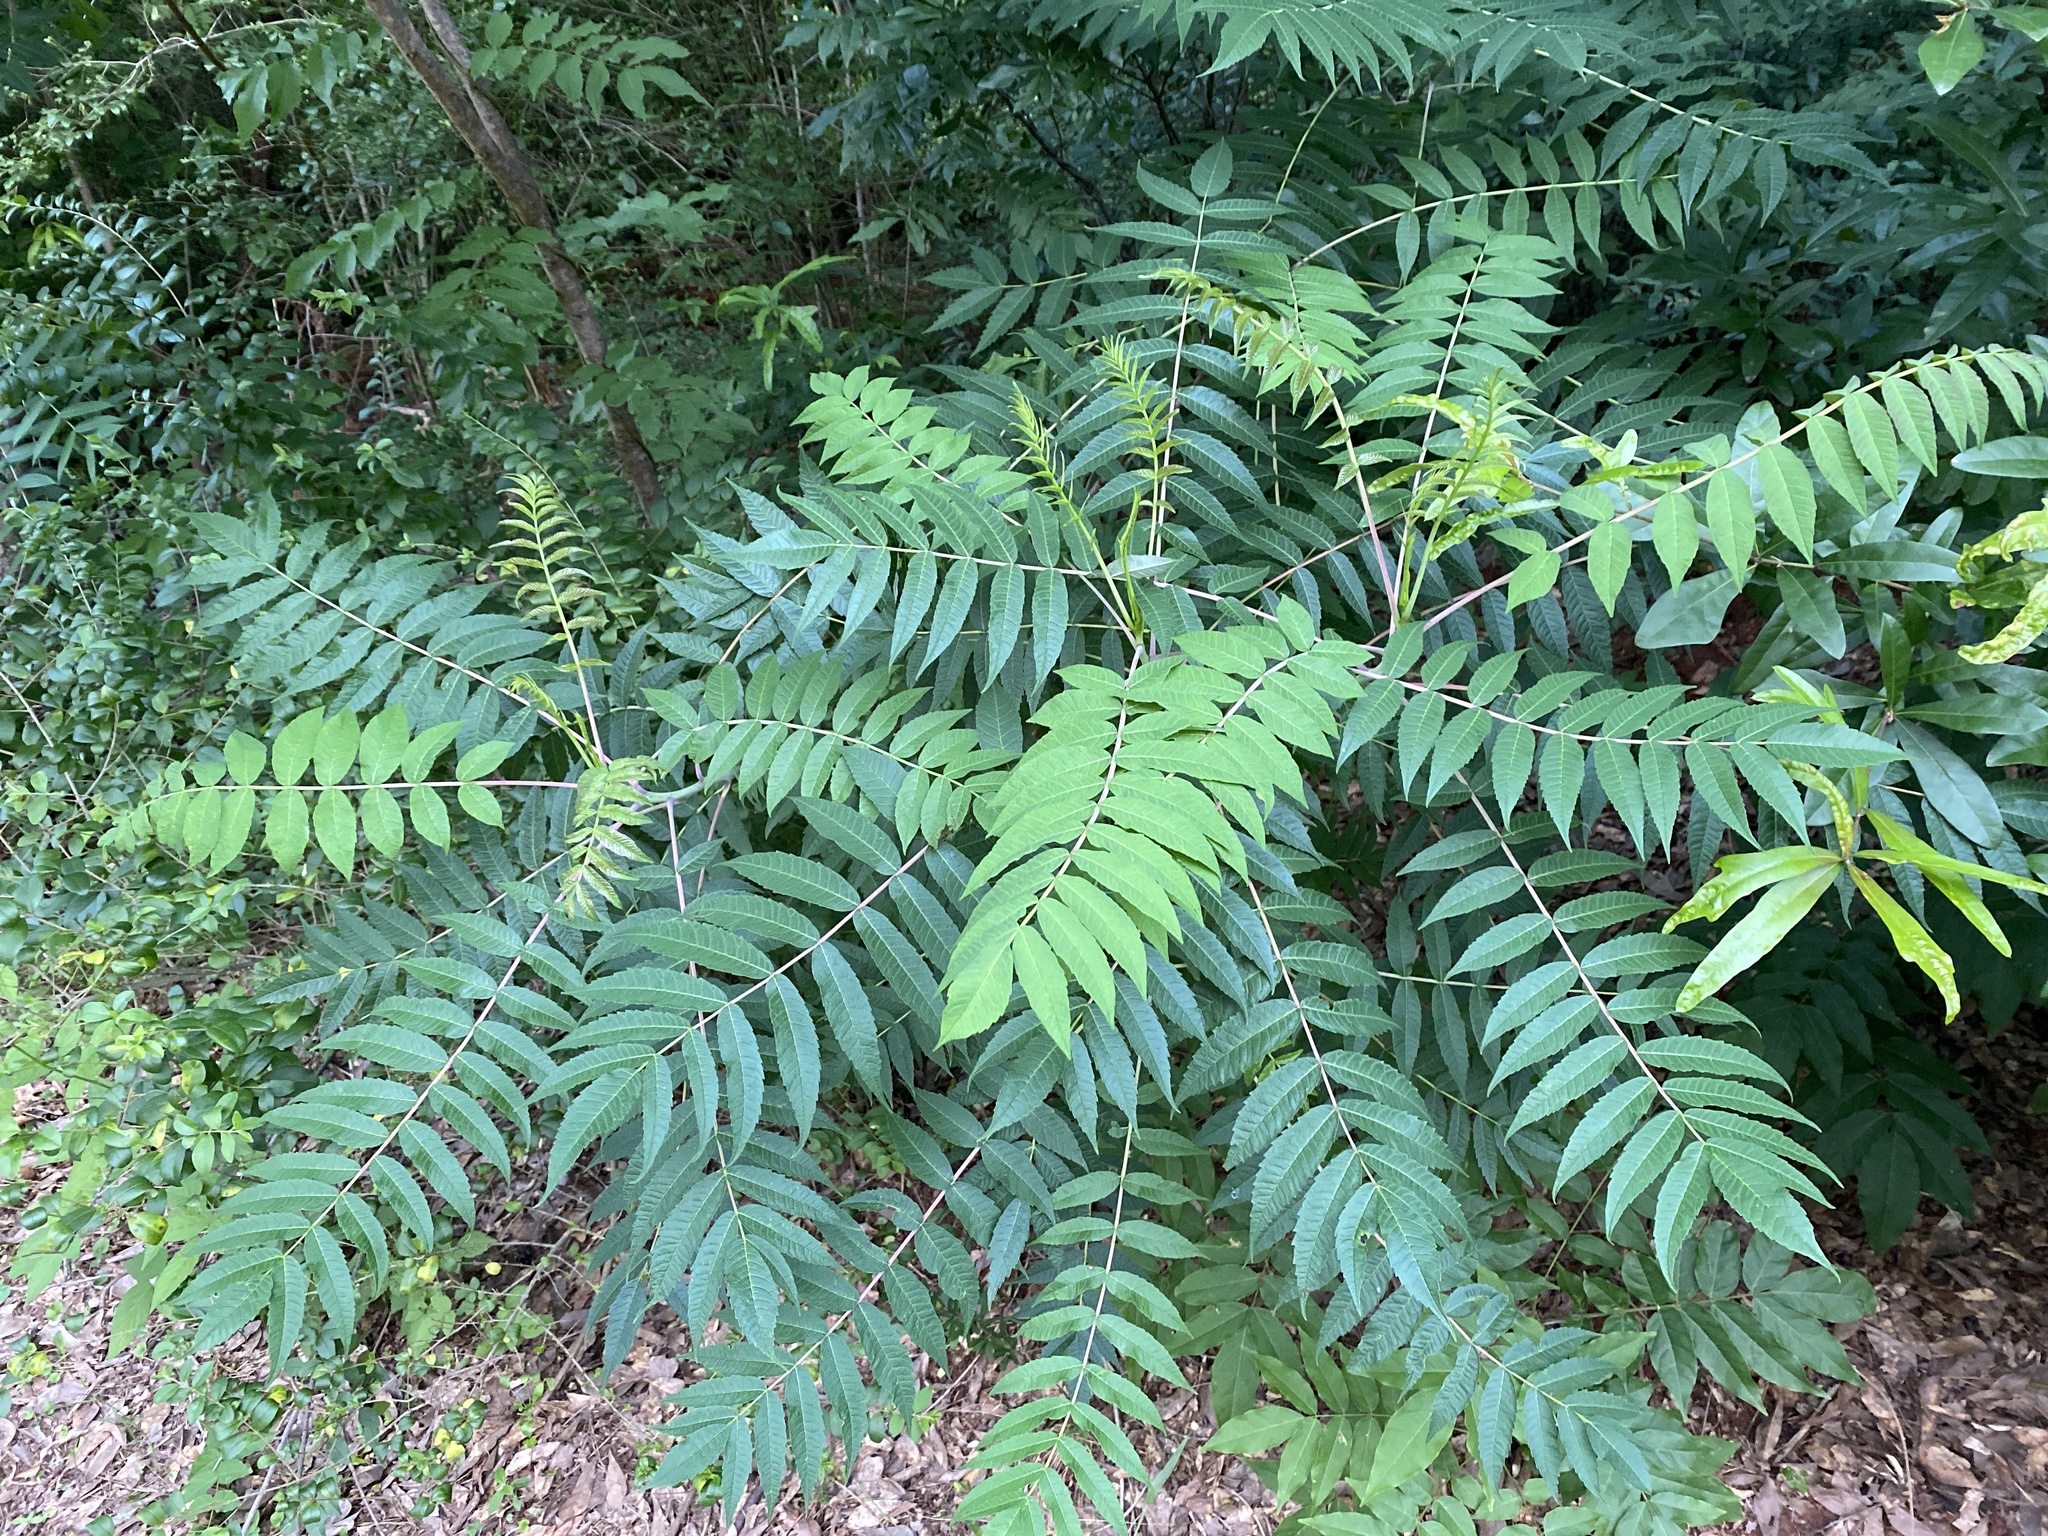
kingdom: Plantae
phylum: Tracheophyta
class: Magnoliopsida
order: Sapindales
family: Anacardiaceae
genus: Rhus
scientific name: Rhus glabra
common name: Scarlet sumac
